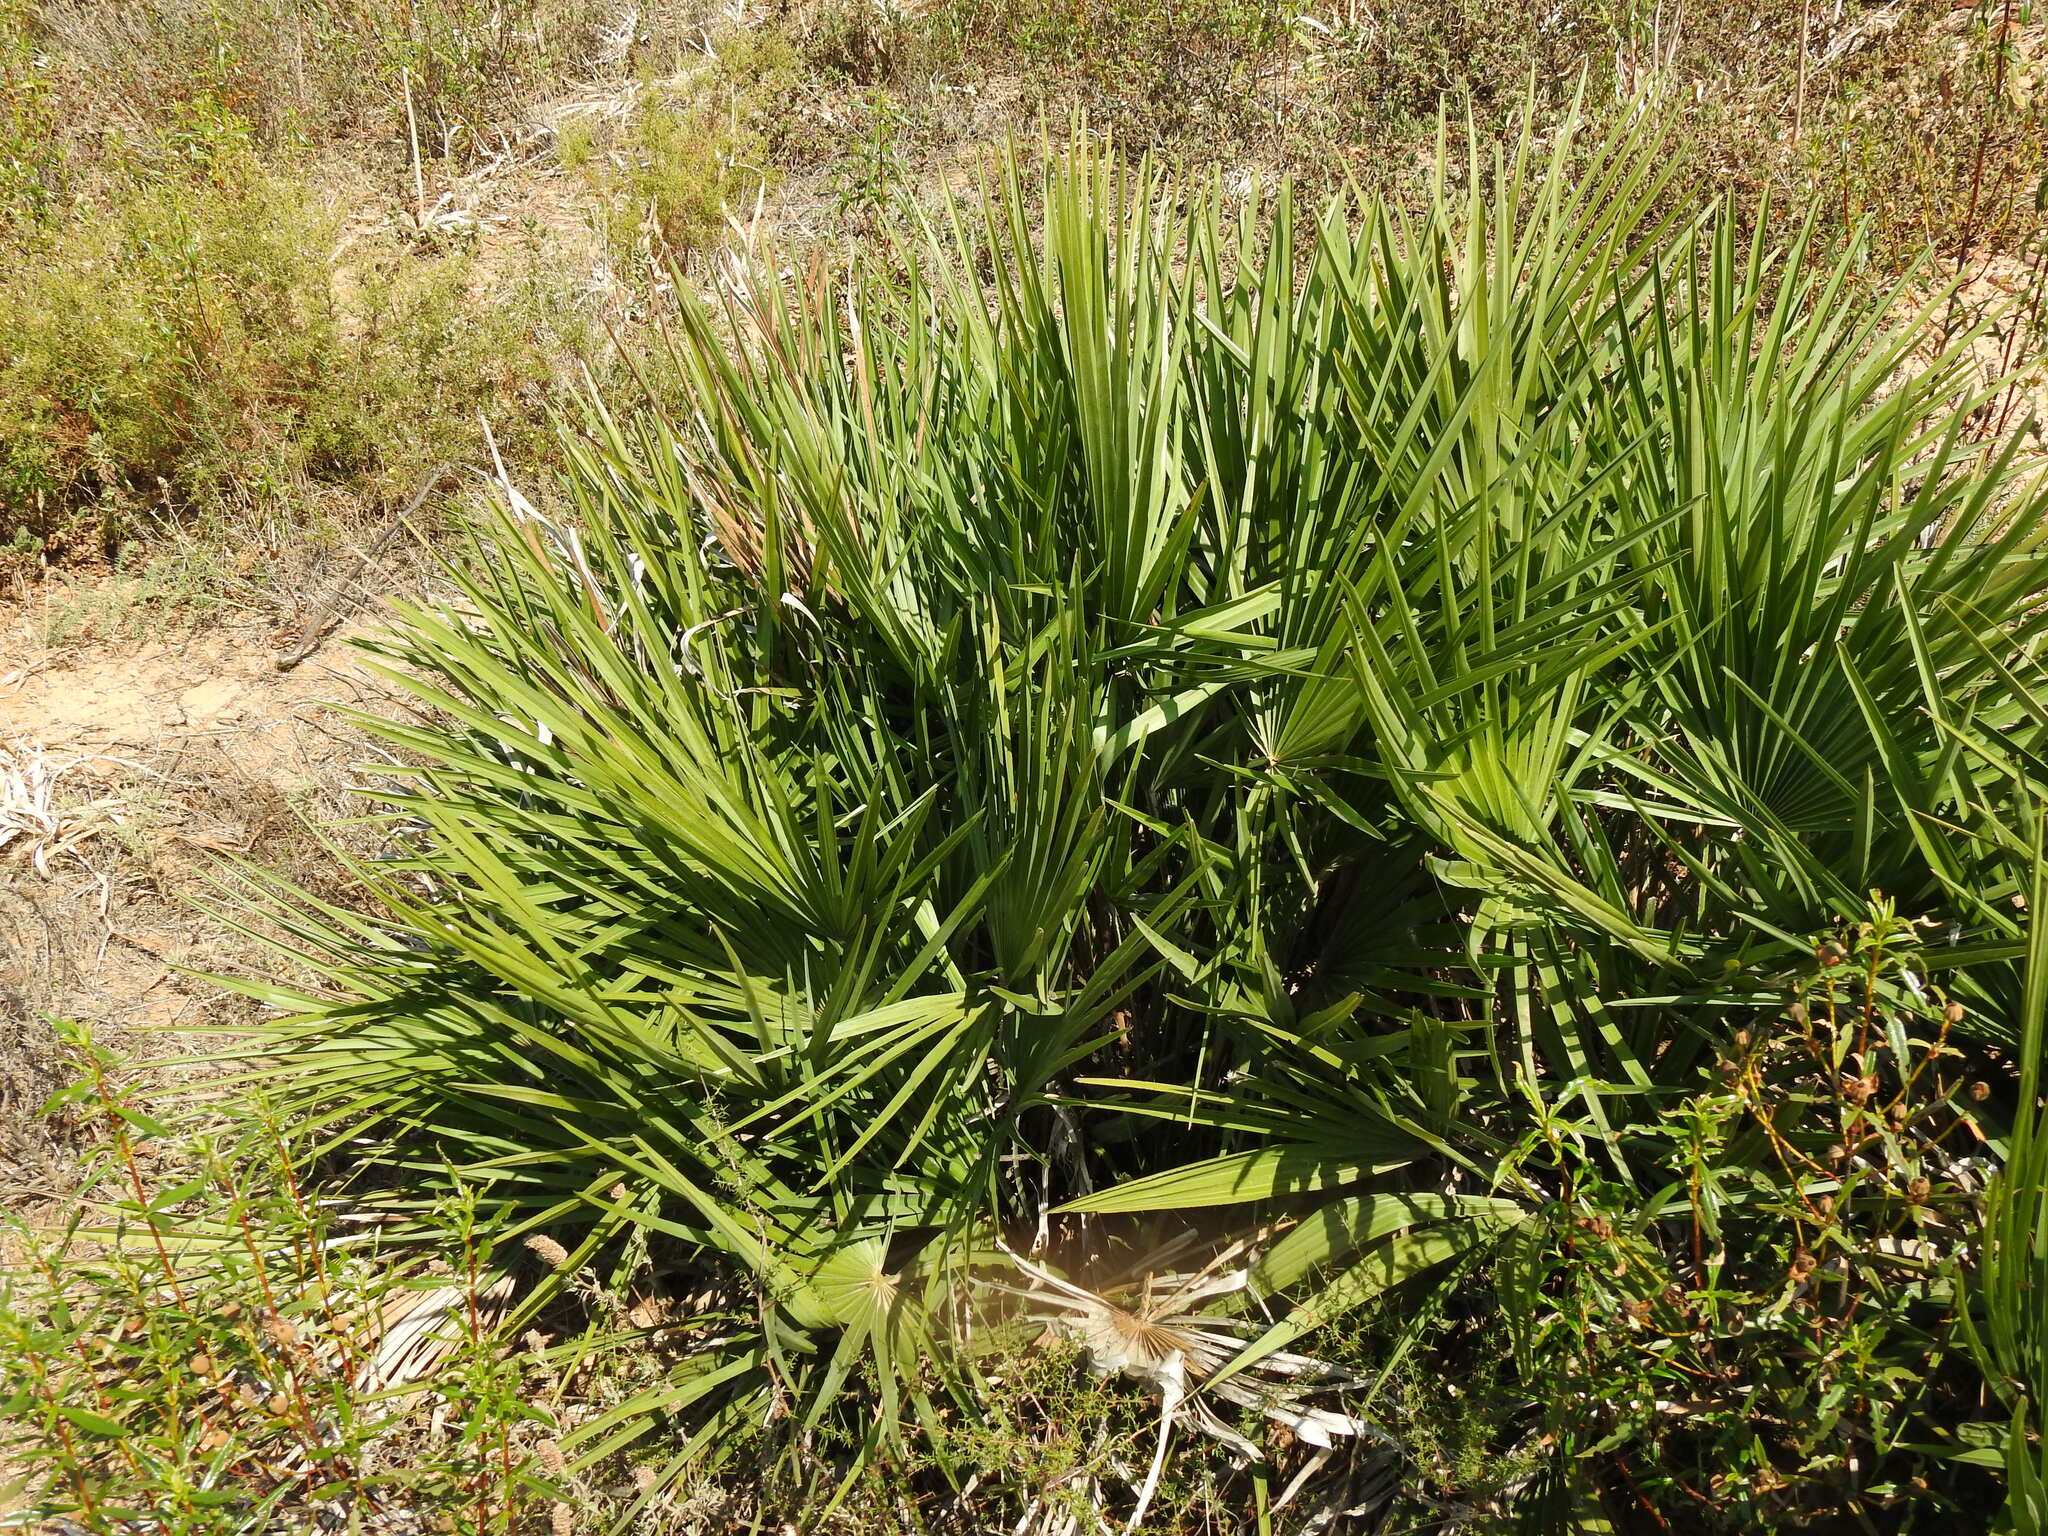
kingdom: Plantae
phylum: Tracheophyta
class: Liliopsida
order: Arecales
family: Arecaceae
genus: Chamaerops
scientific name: Chamaerops humilis
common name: Dwarf fan palm
